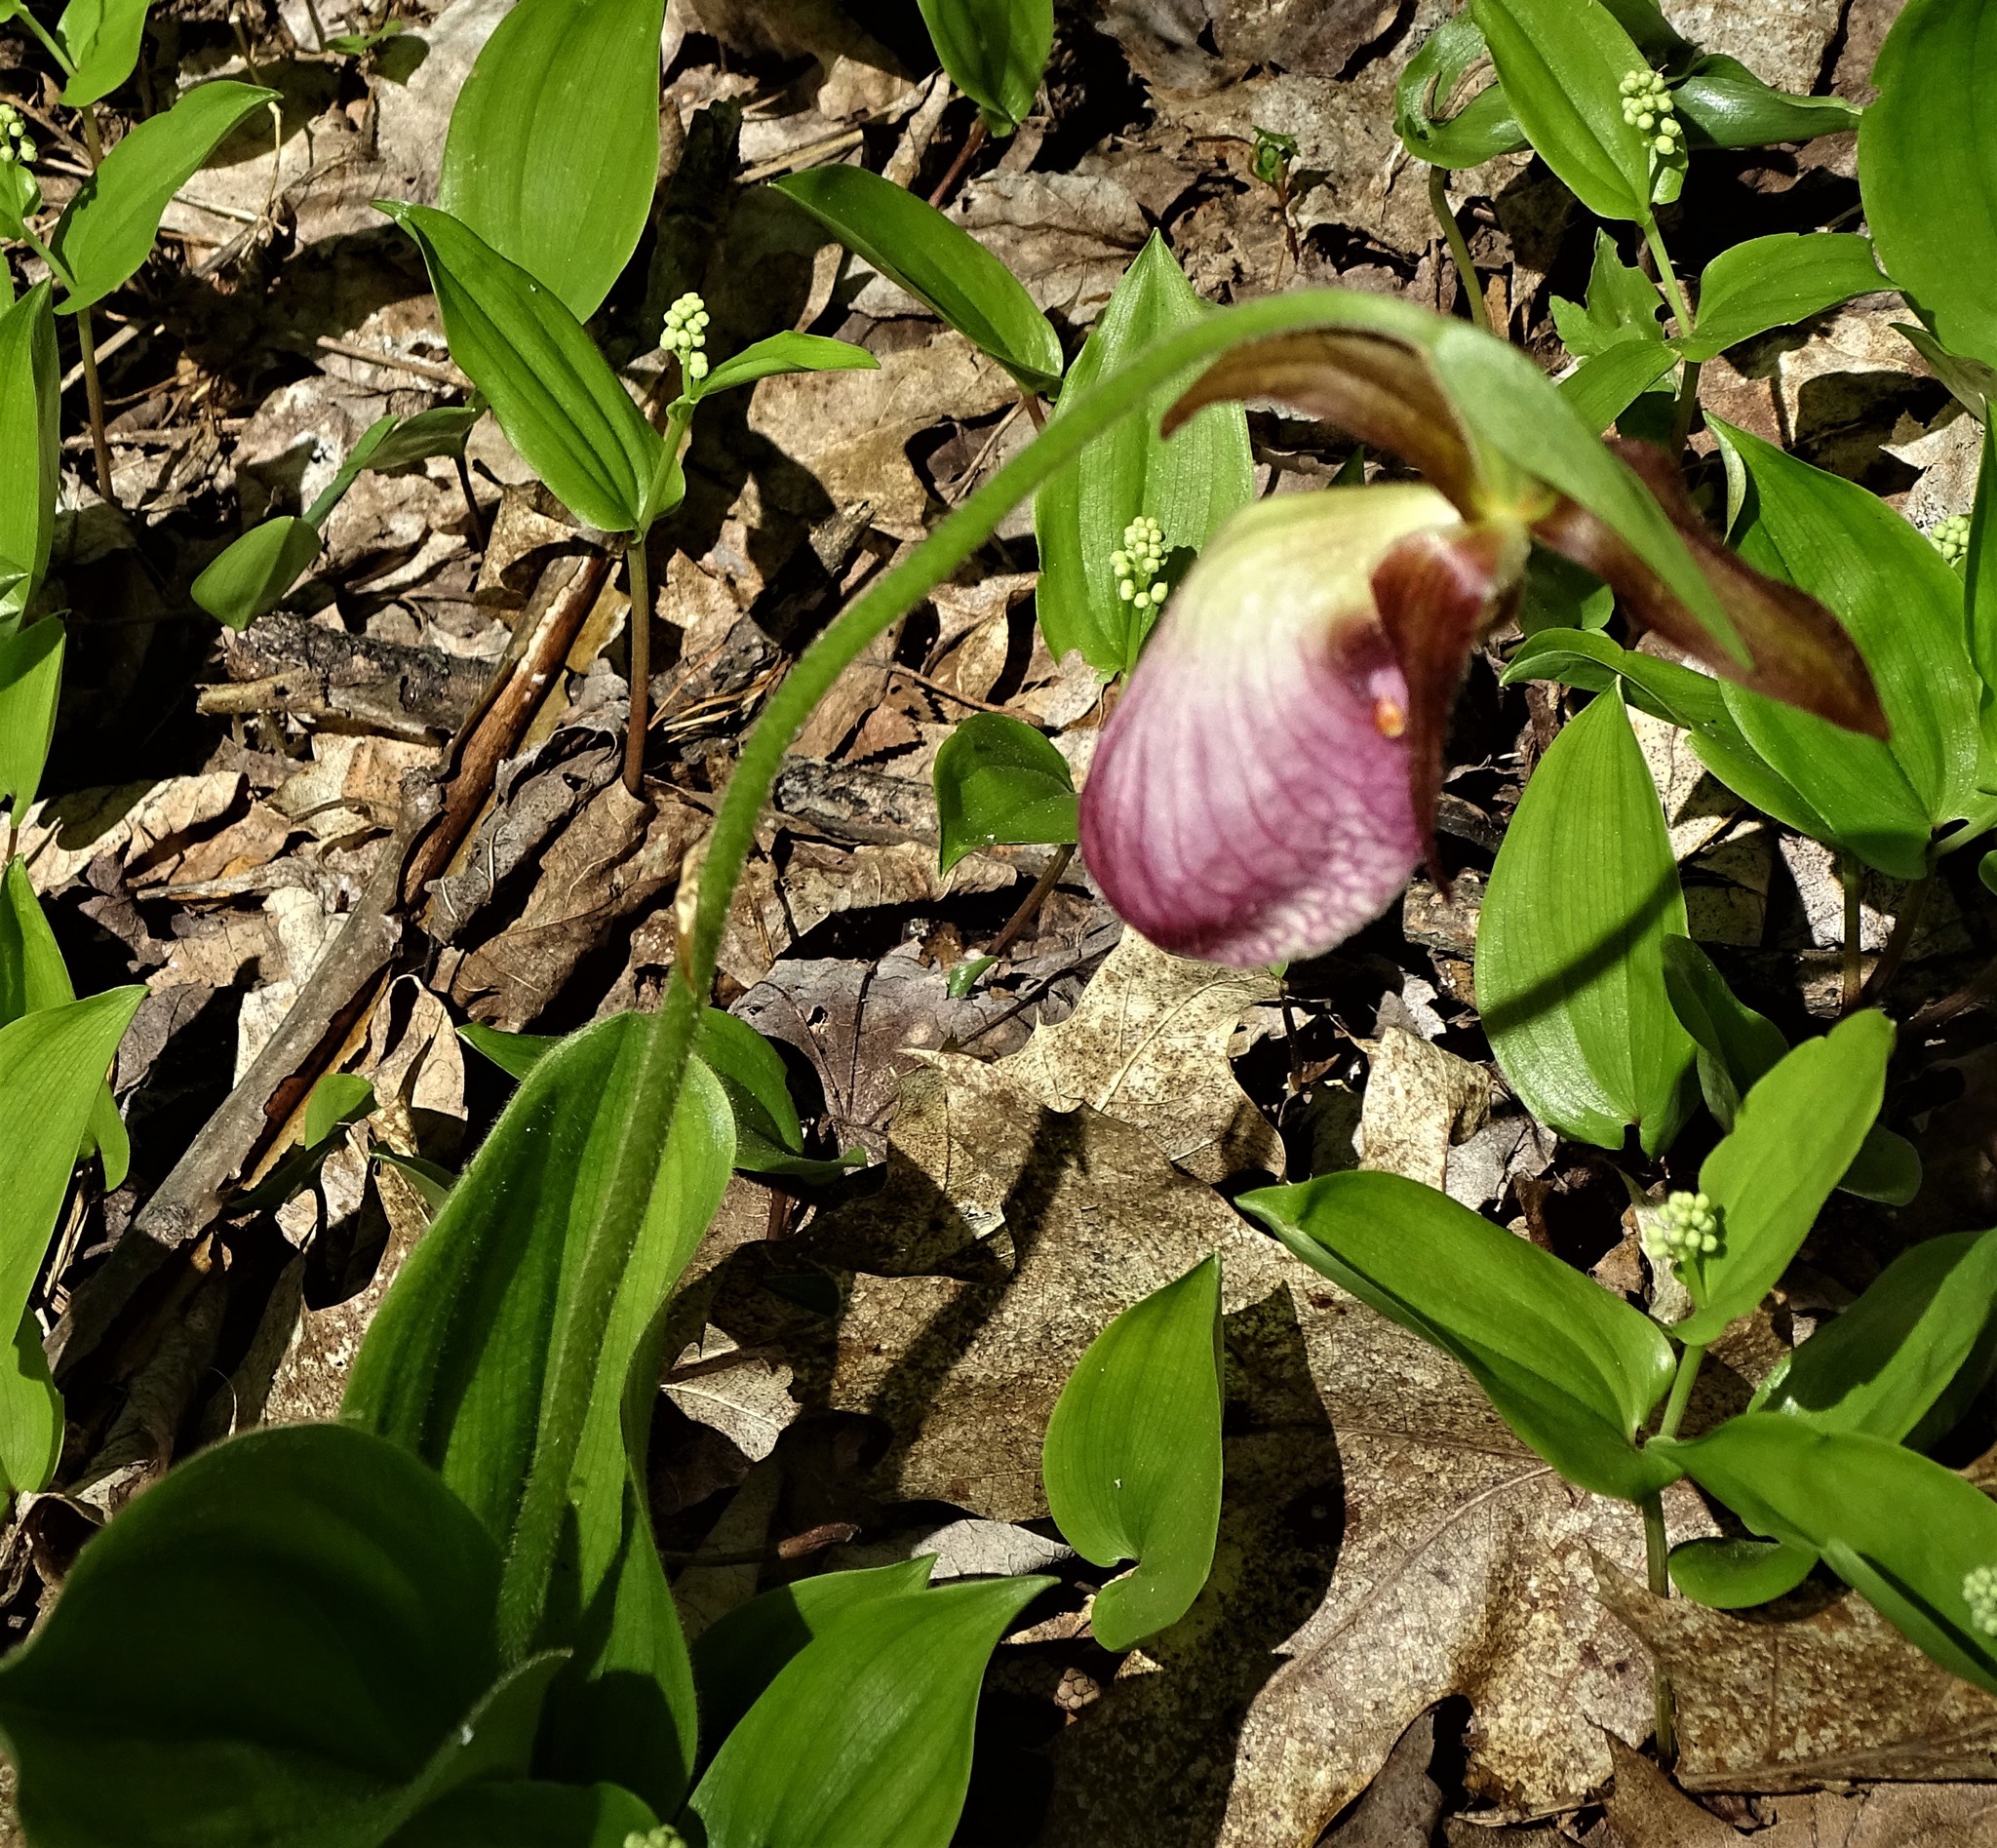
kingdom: Plantae
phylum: Tracheophyta
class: Liliopsida
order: Asparagales
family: Orchidaceae
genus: Cypripedium
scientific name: Cypripedium acaule
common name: Pink lady's-slipper
